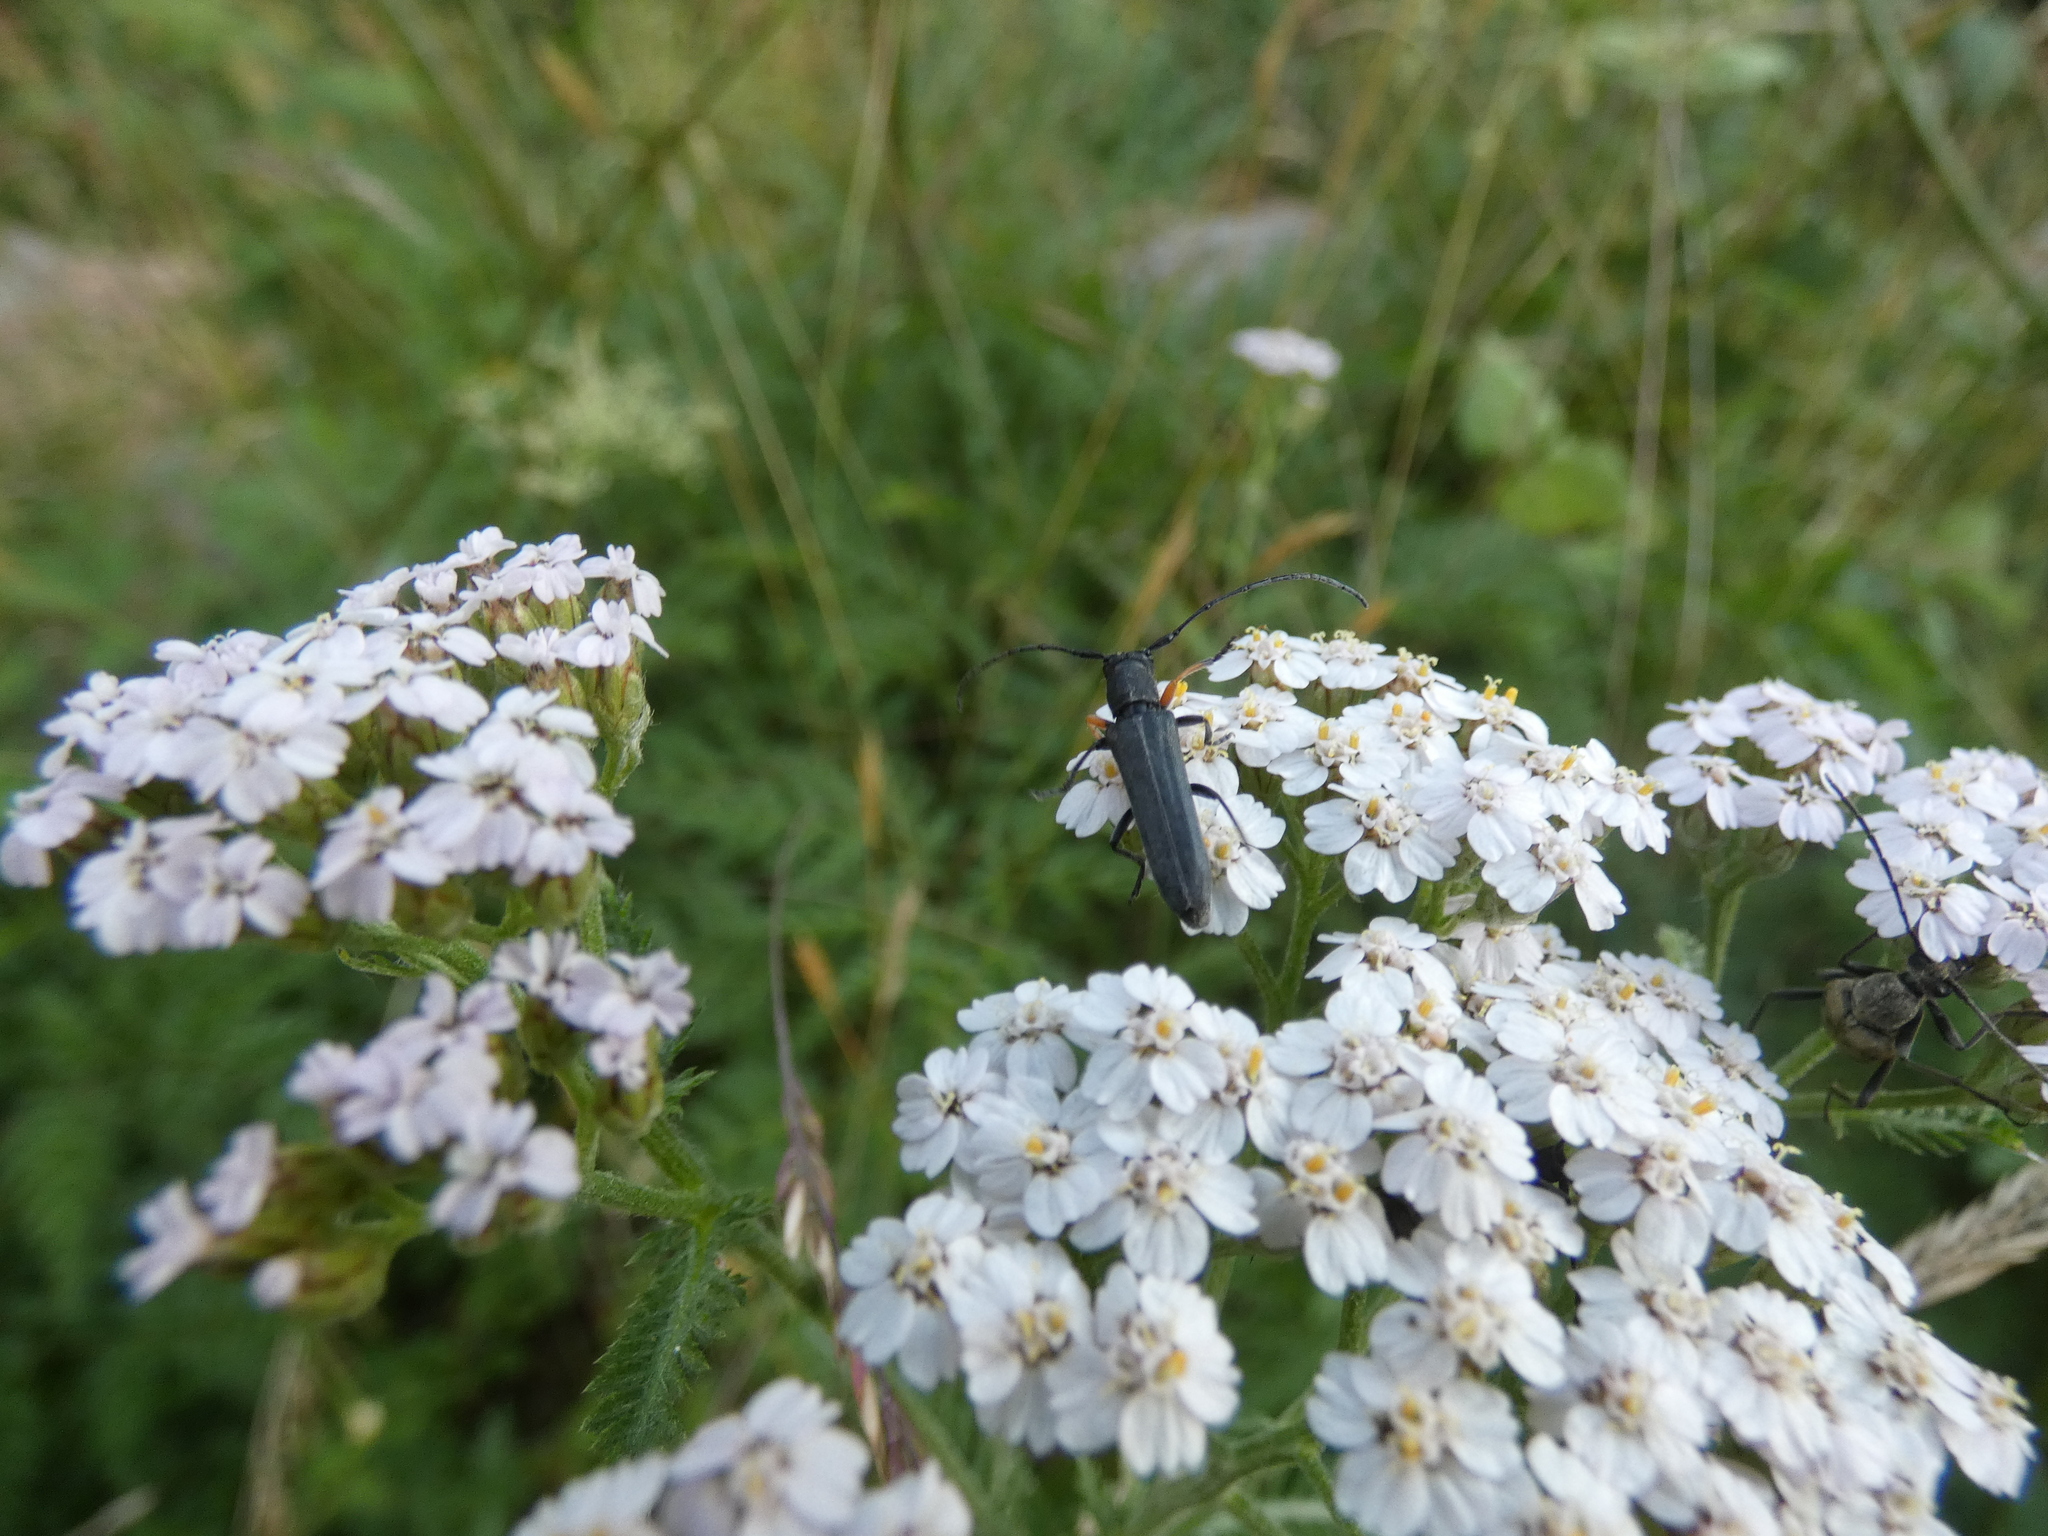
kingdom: Animalia
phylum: Arthropoda
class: Insecta
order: Coleoptera
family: Cerambycidae
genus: Phytoecia
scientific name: Phytoecia cylindrica
